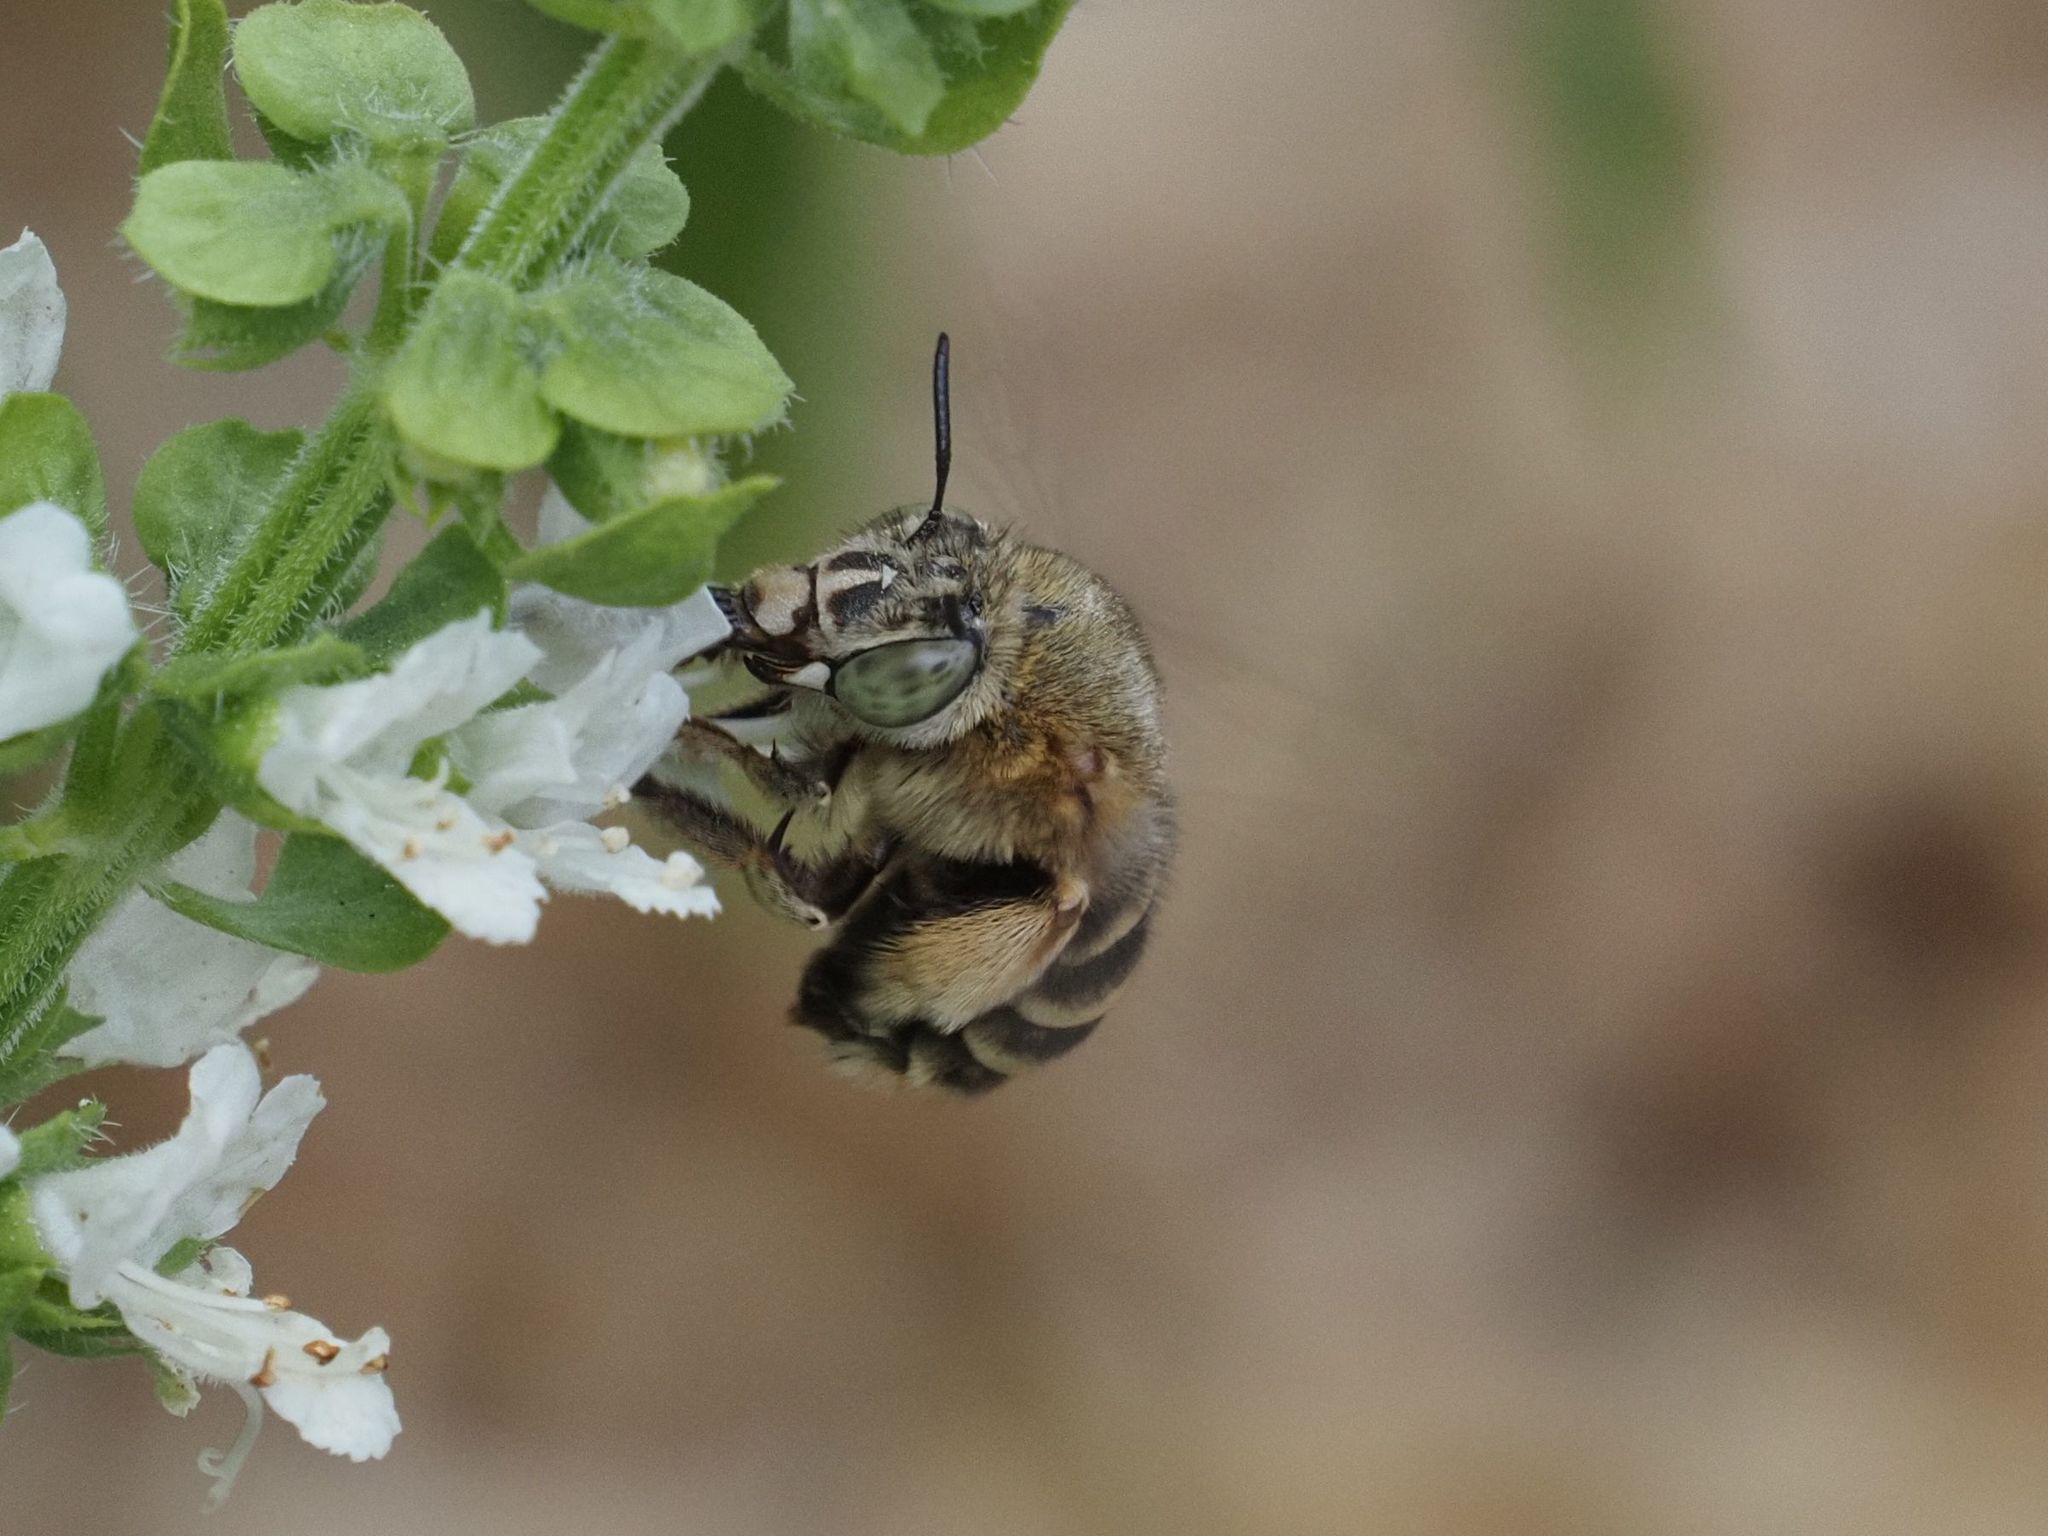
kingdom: Animalia
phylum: Arthropoda
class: Insecta
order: Hymenoptera
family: Apidae
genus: Amegilla
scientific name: Amegilla garrula
